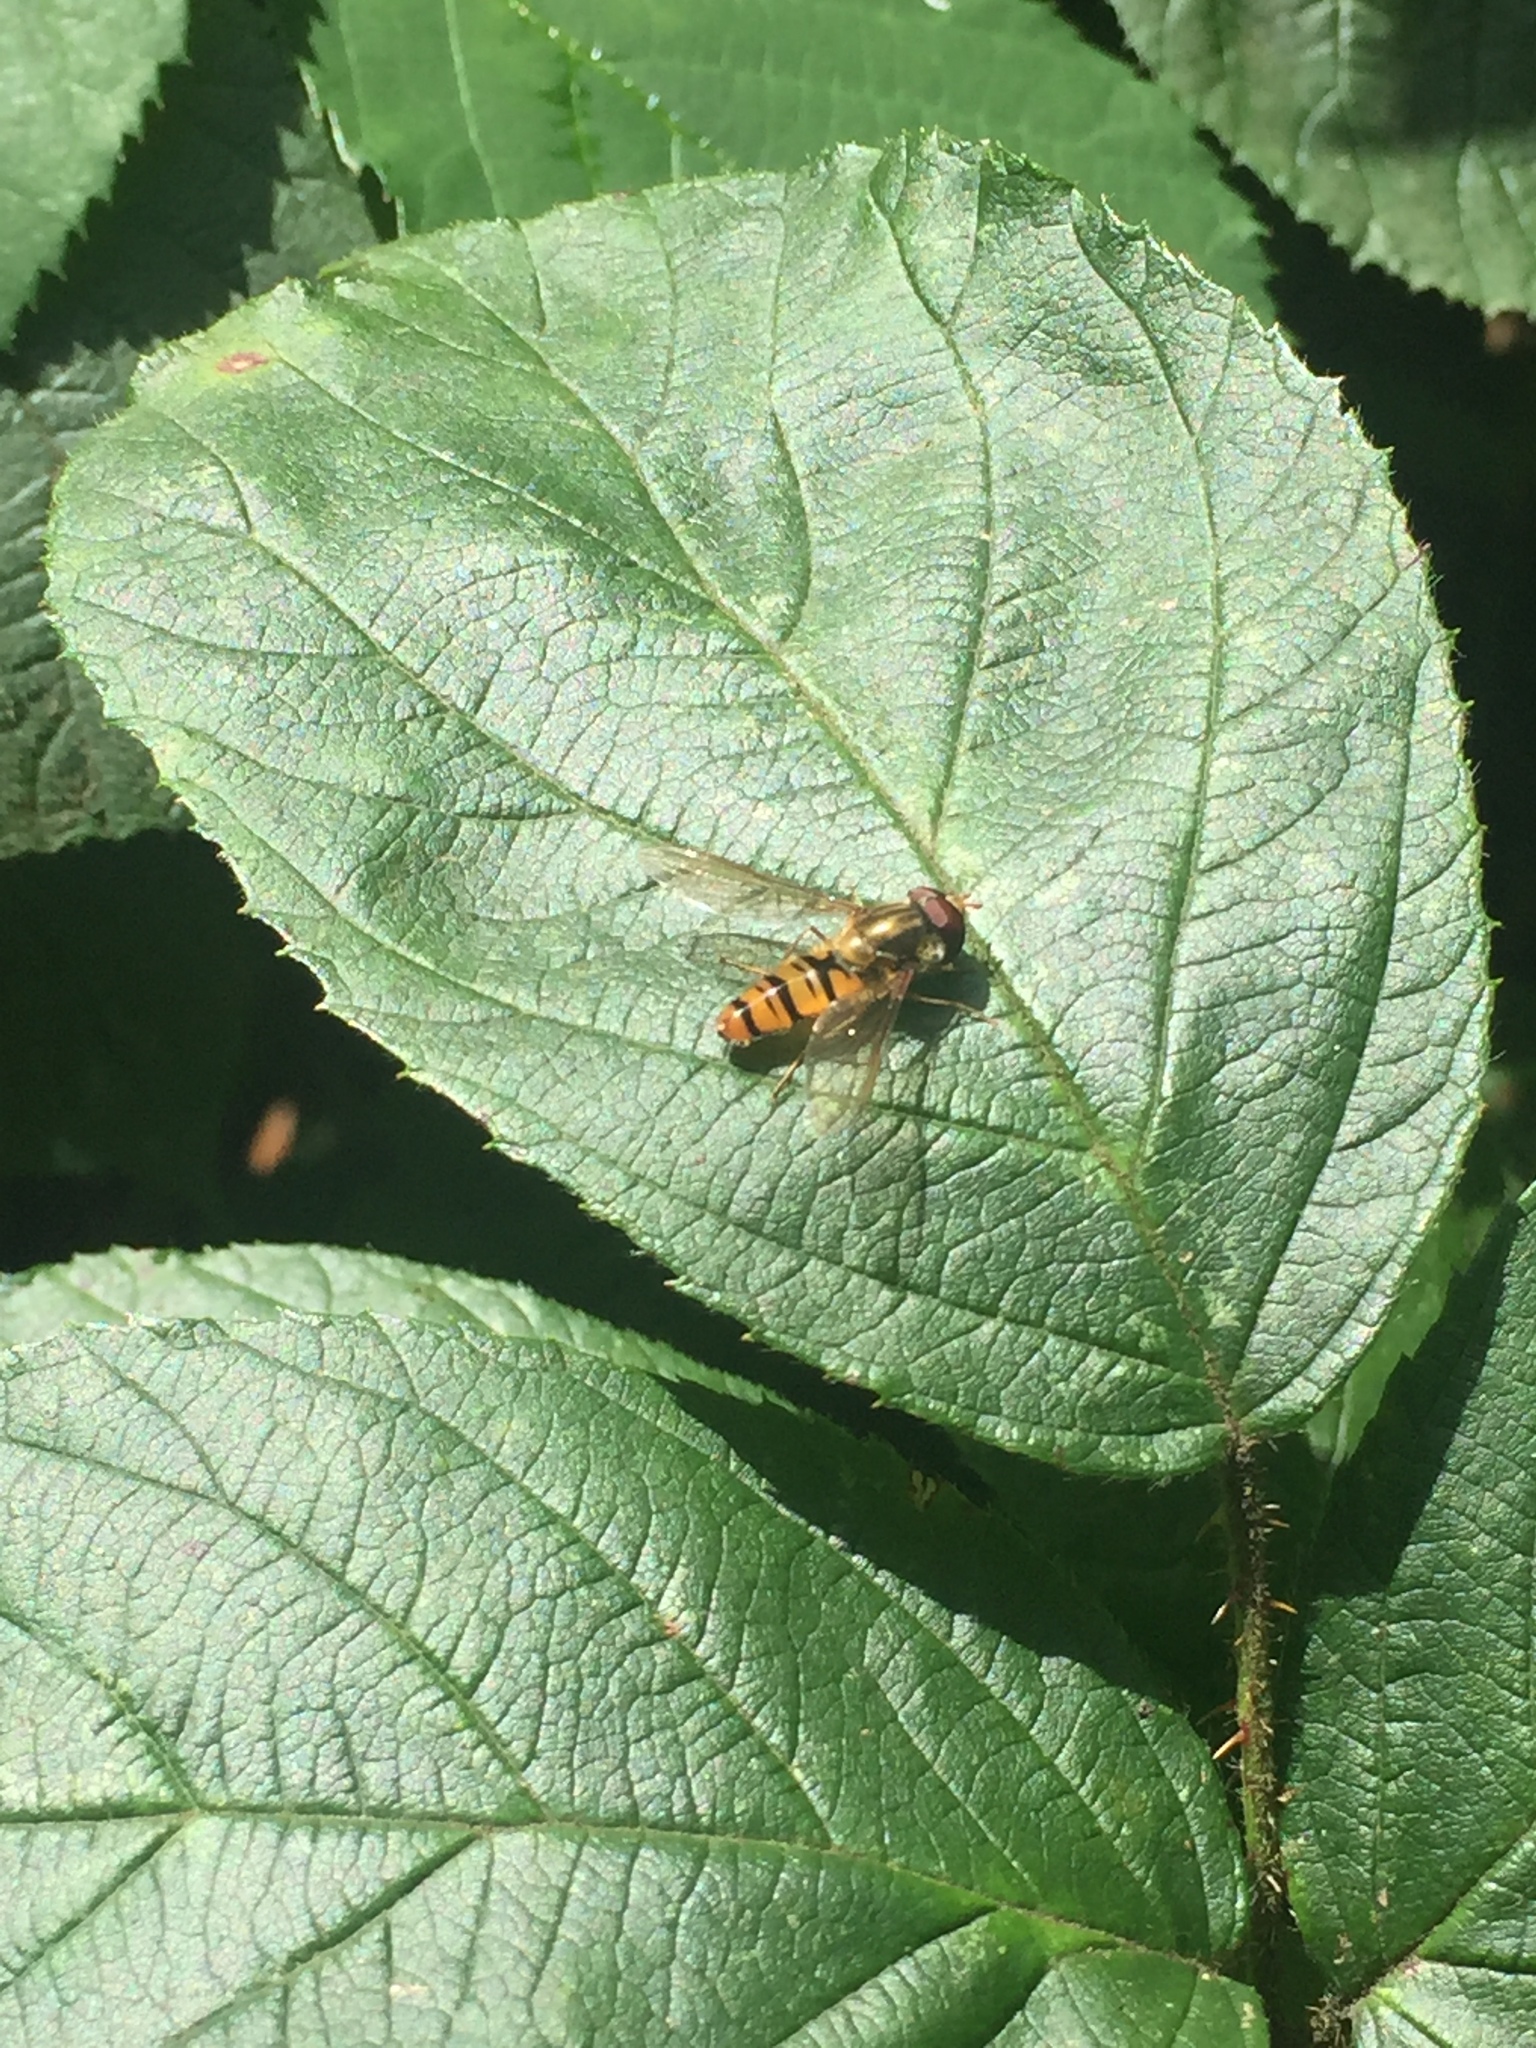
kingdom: Animalia
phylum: Arthropoda
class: Insecta
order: Diptera
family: Syrphidae
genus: Episyrphus
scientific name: Episyrphus balteatus
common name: Marmalade hoverfly
